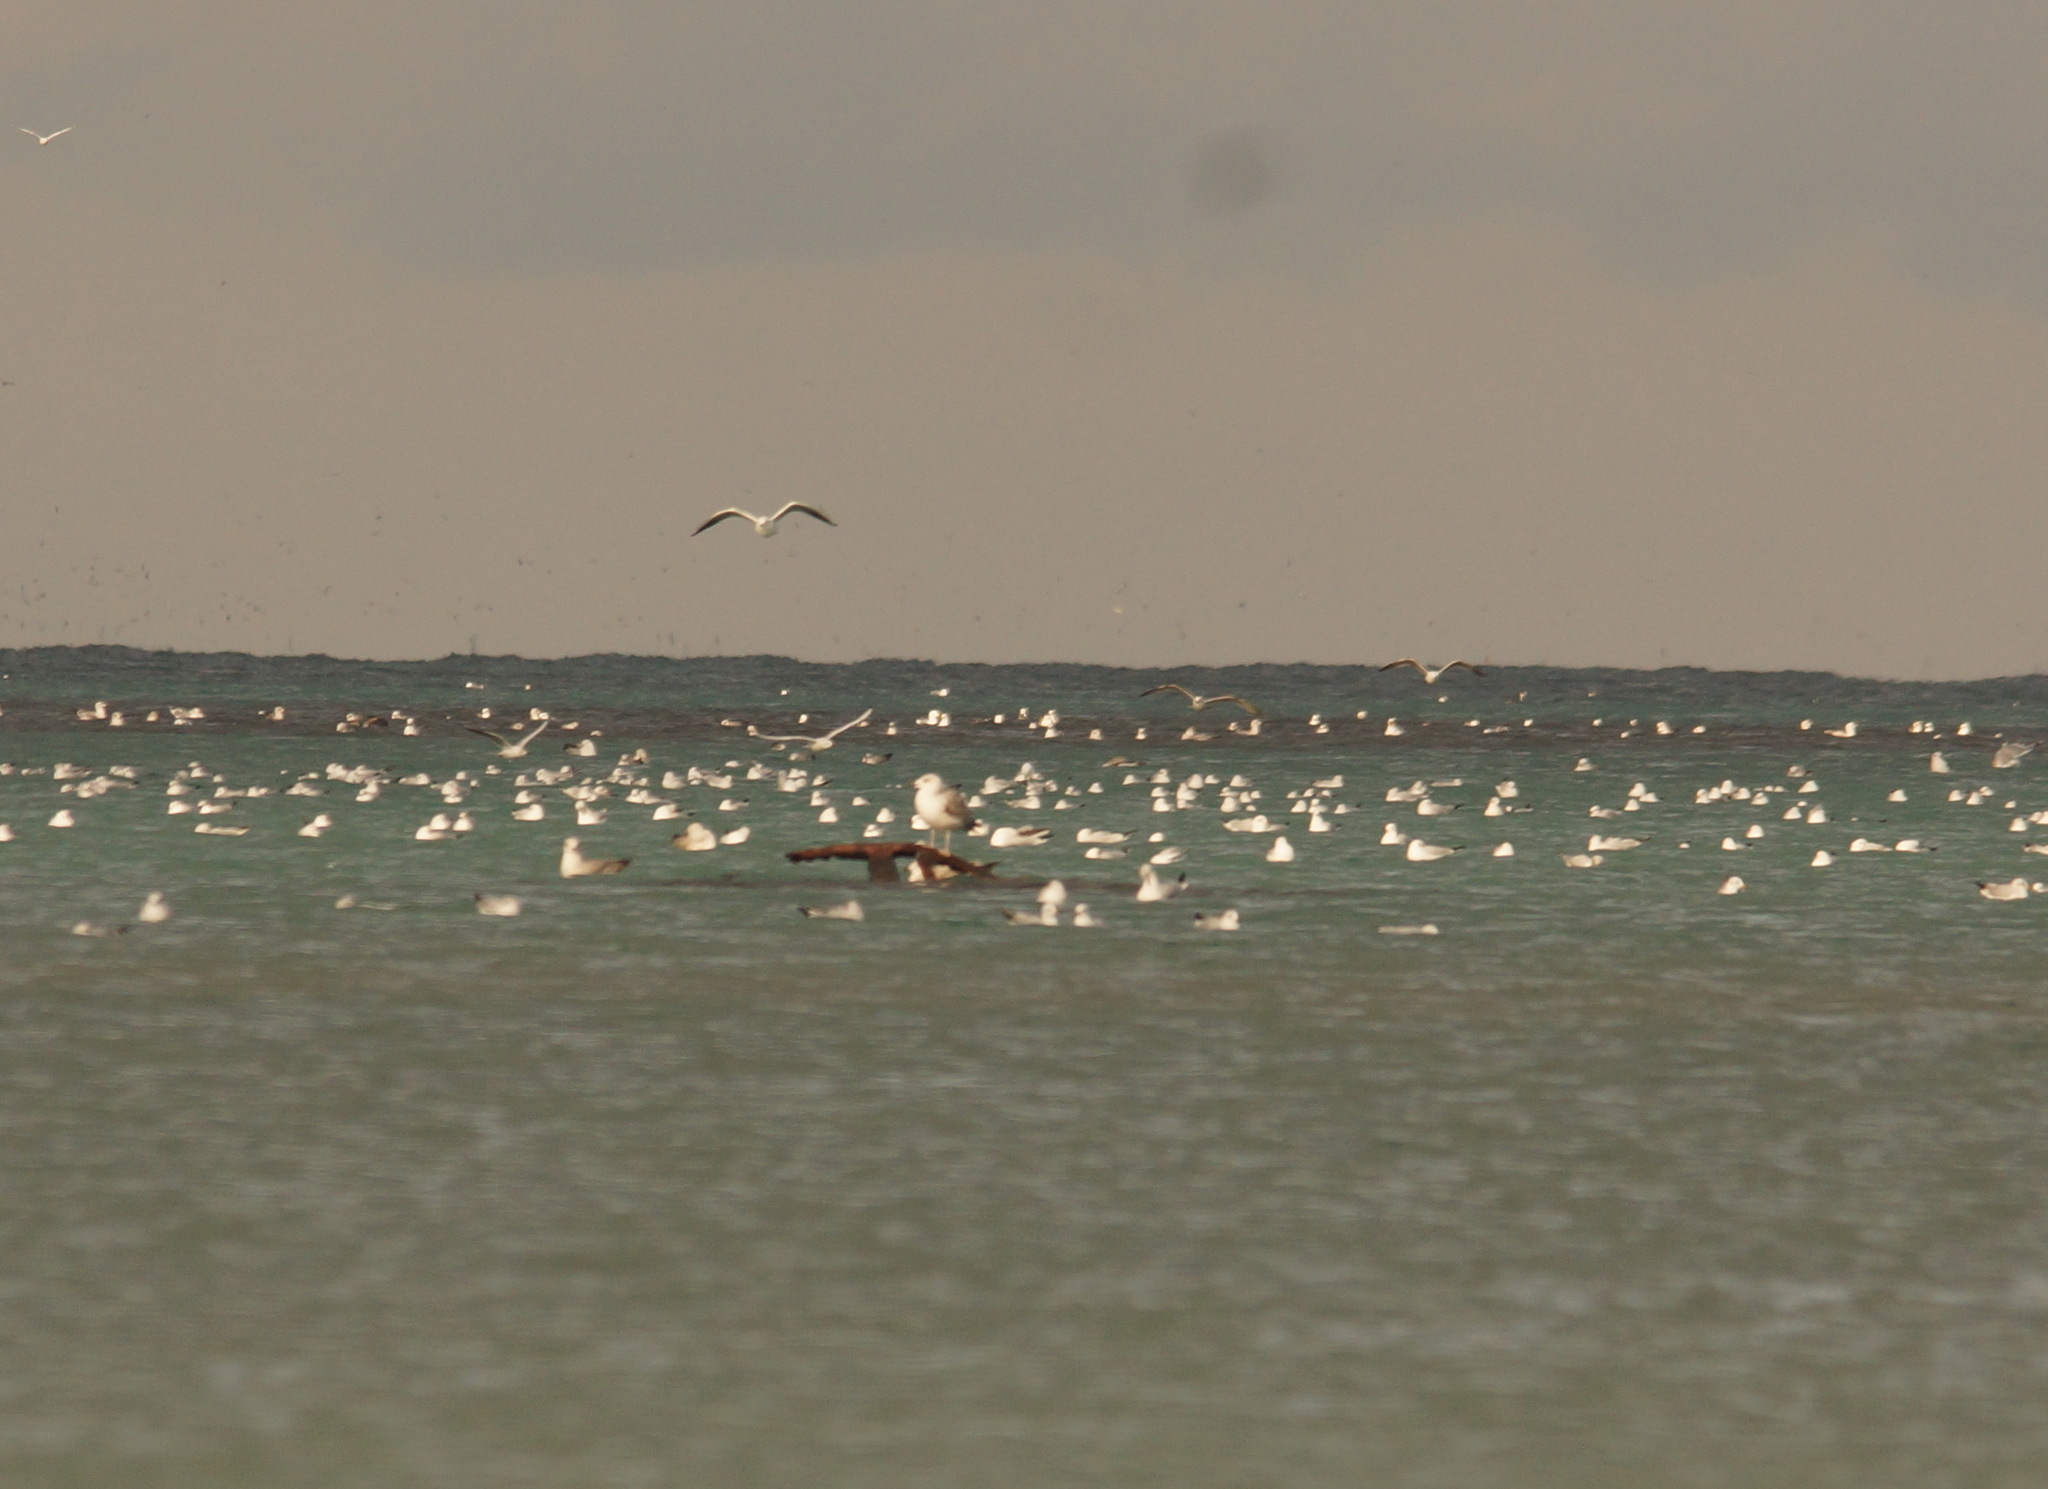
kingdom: Animalia
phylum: Chordata
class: Aves
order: Charadriiformes
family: Laridae
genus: Chroicocephalus
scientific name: Chroicocephalus ridibundus
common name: Black-headed gull
